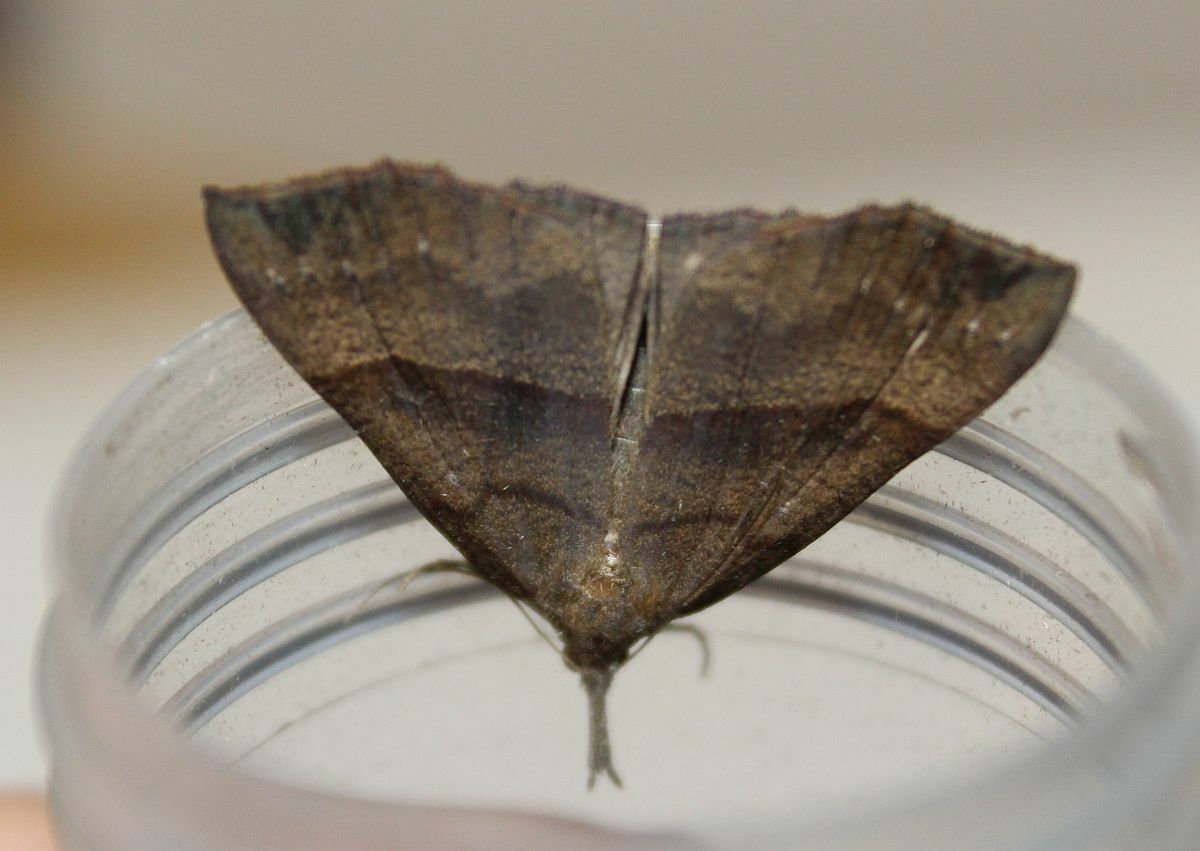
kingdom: Animalia
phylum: Arthropoda
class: Insecta
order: Lepidoptera
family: Erebidae
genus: Hypena
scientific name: Hypena proboscidalis
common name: Snout
